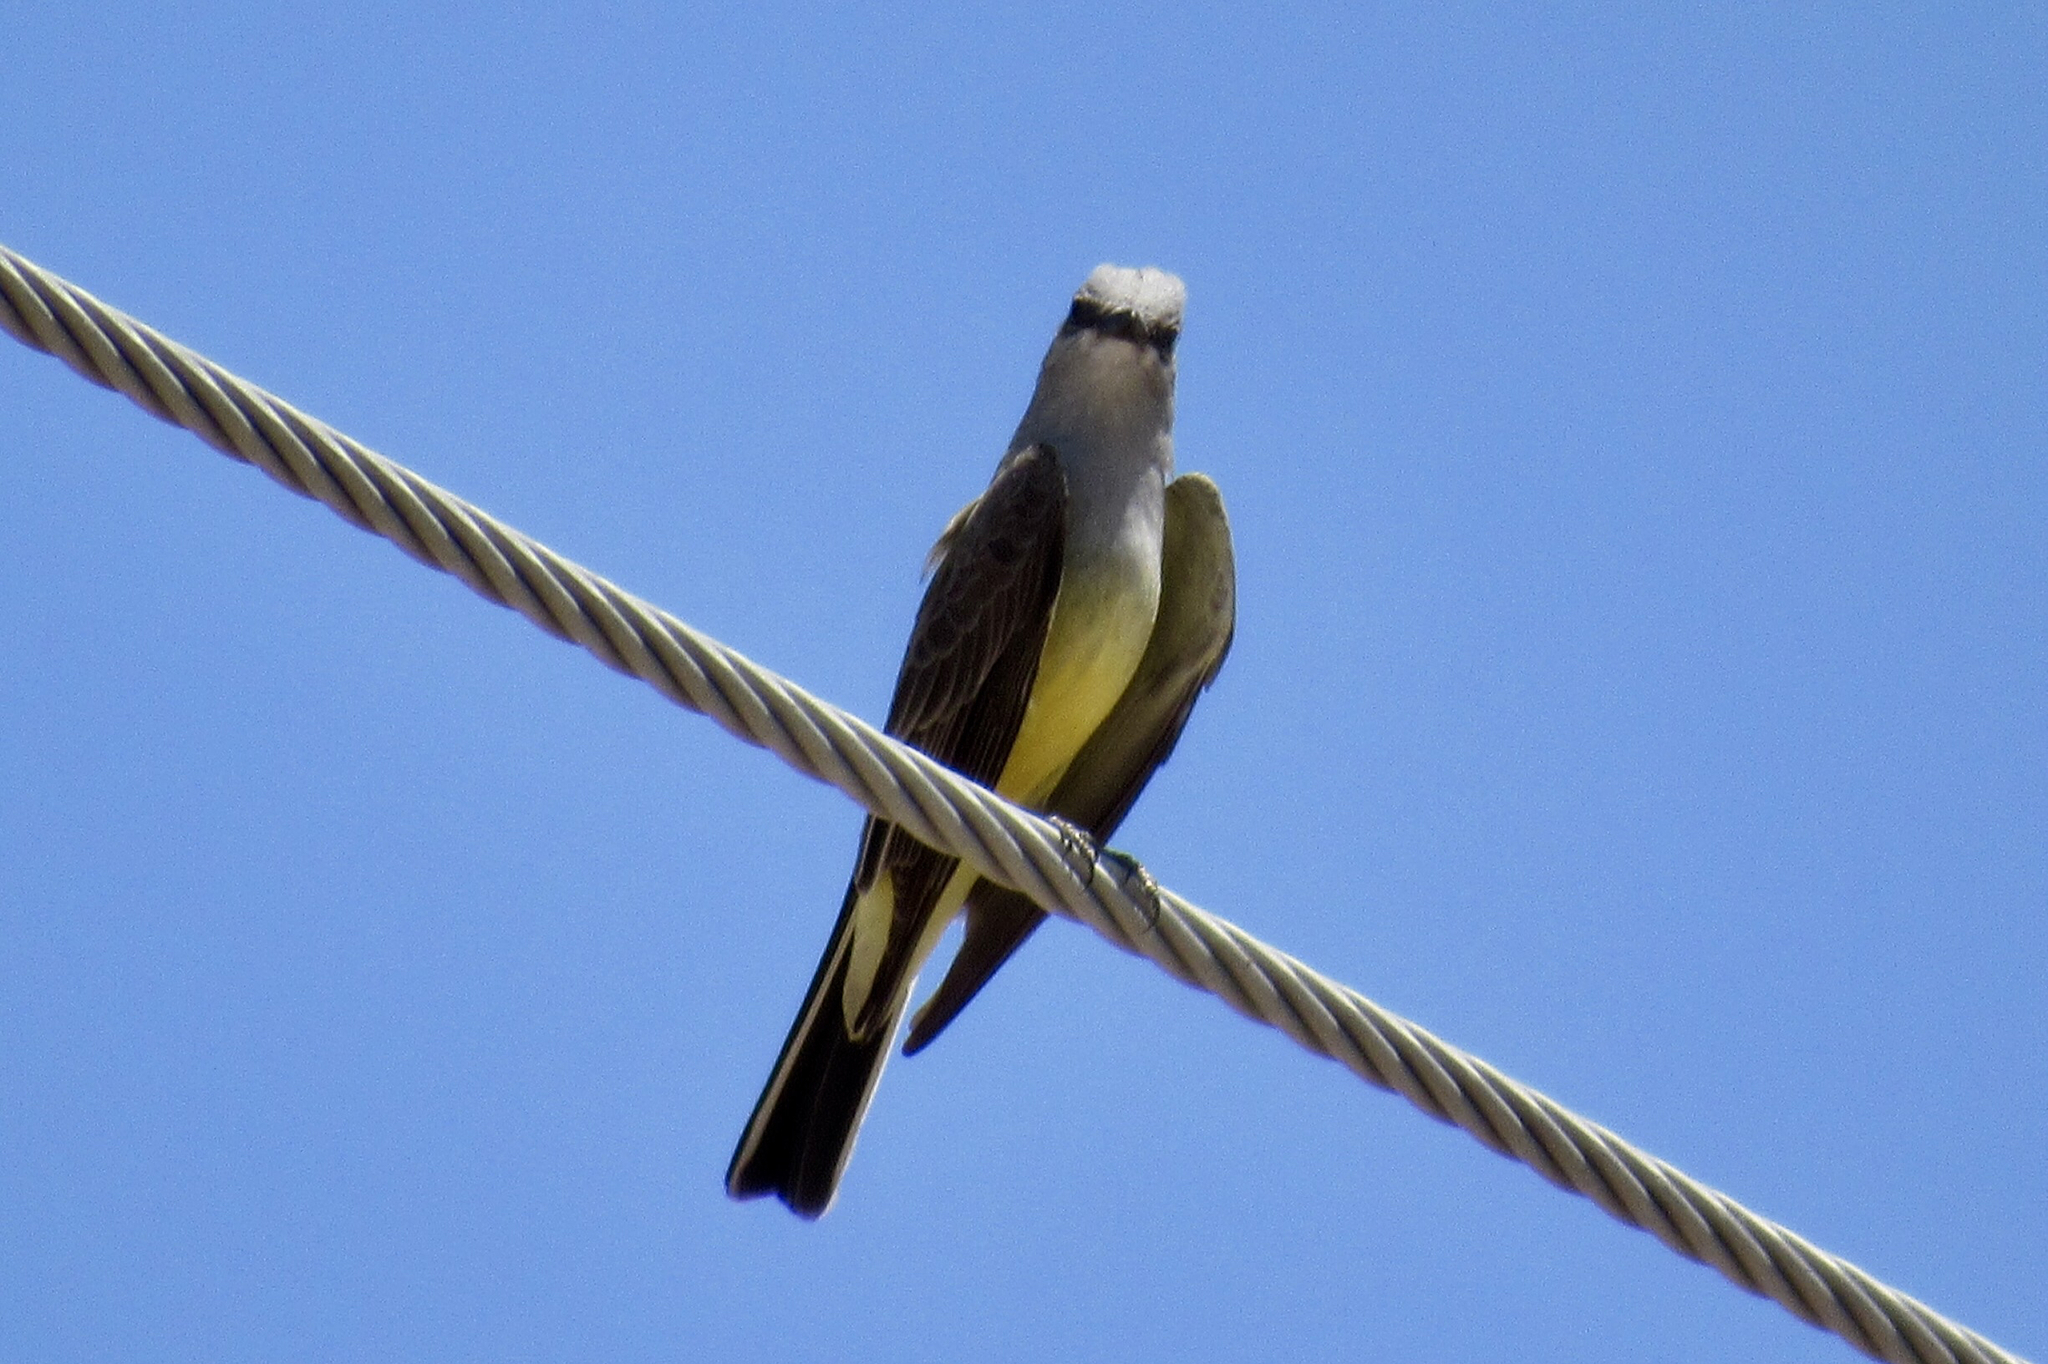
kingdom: Animalia
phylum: Chordata
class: Aves
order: Passeriformes
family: Tyrannidae
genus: Tyrannus
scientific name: Tyrannus verticalis
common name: Western kingbird
